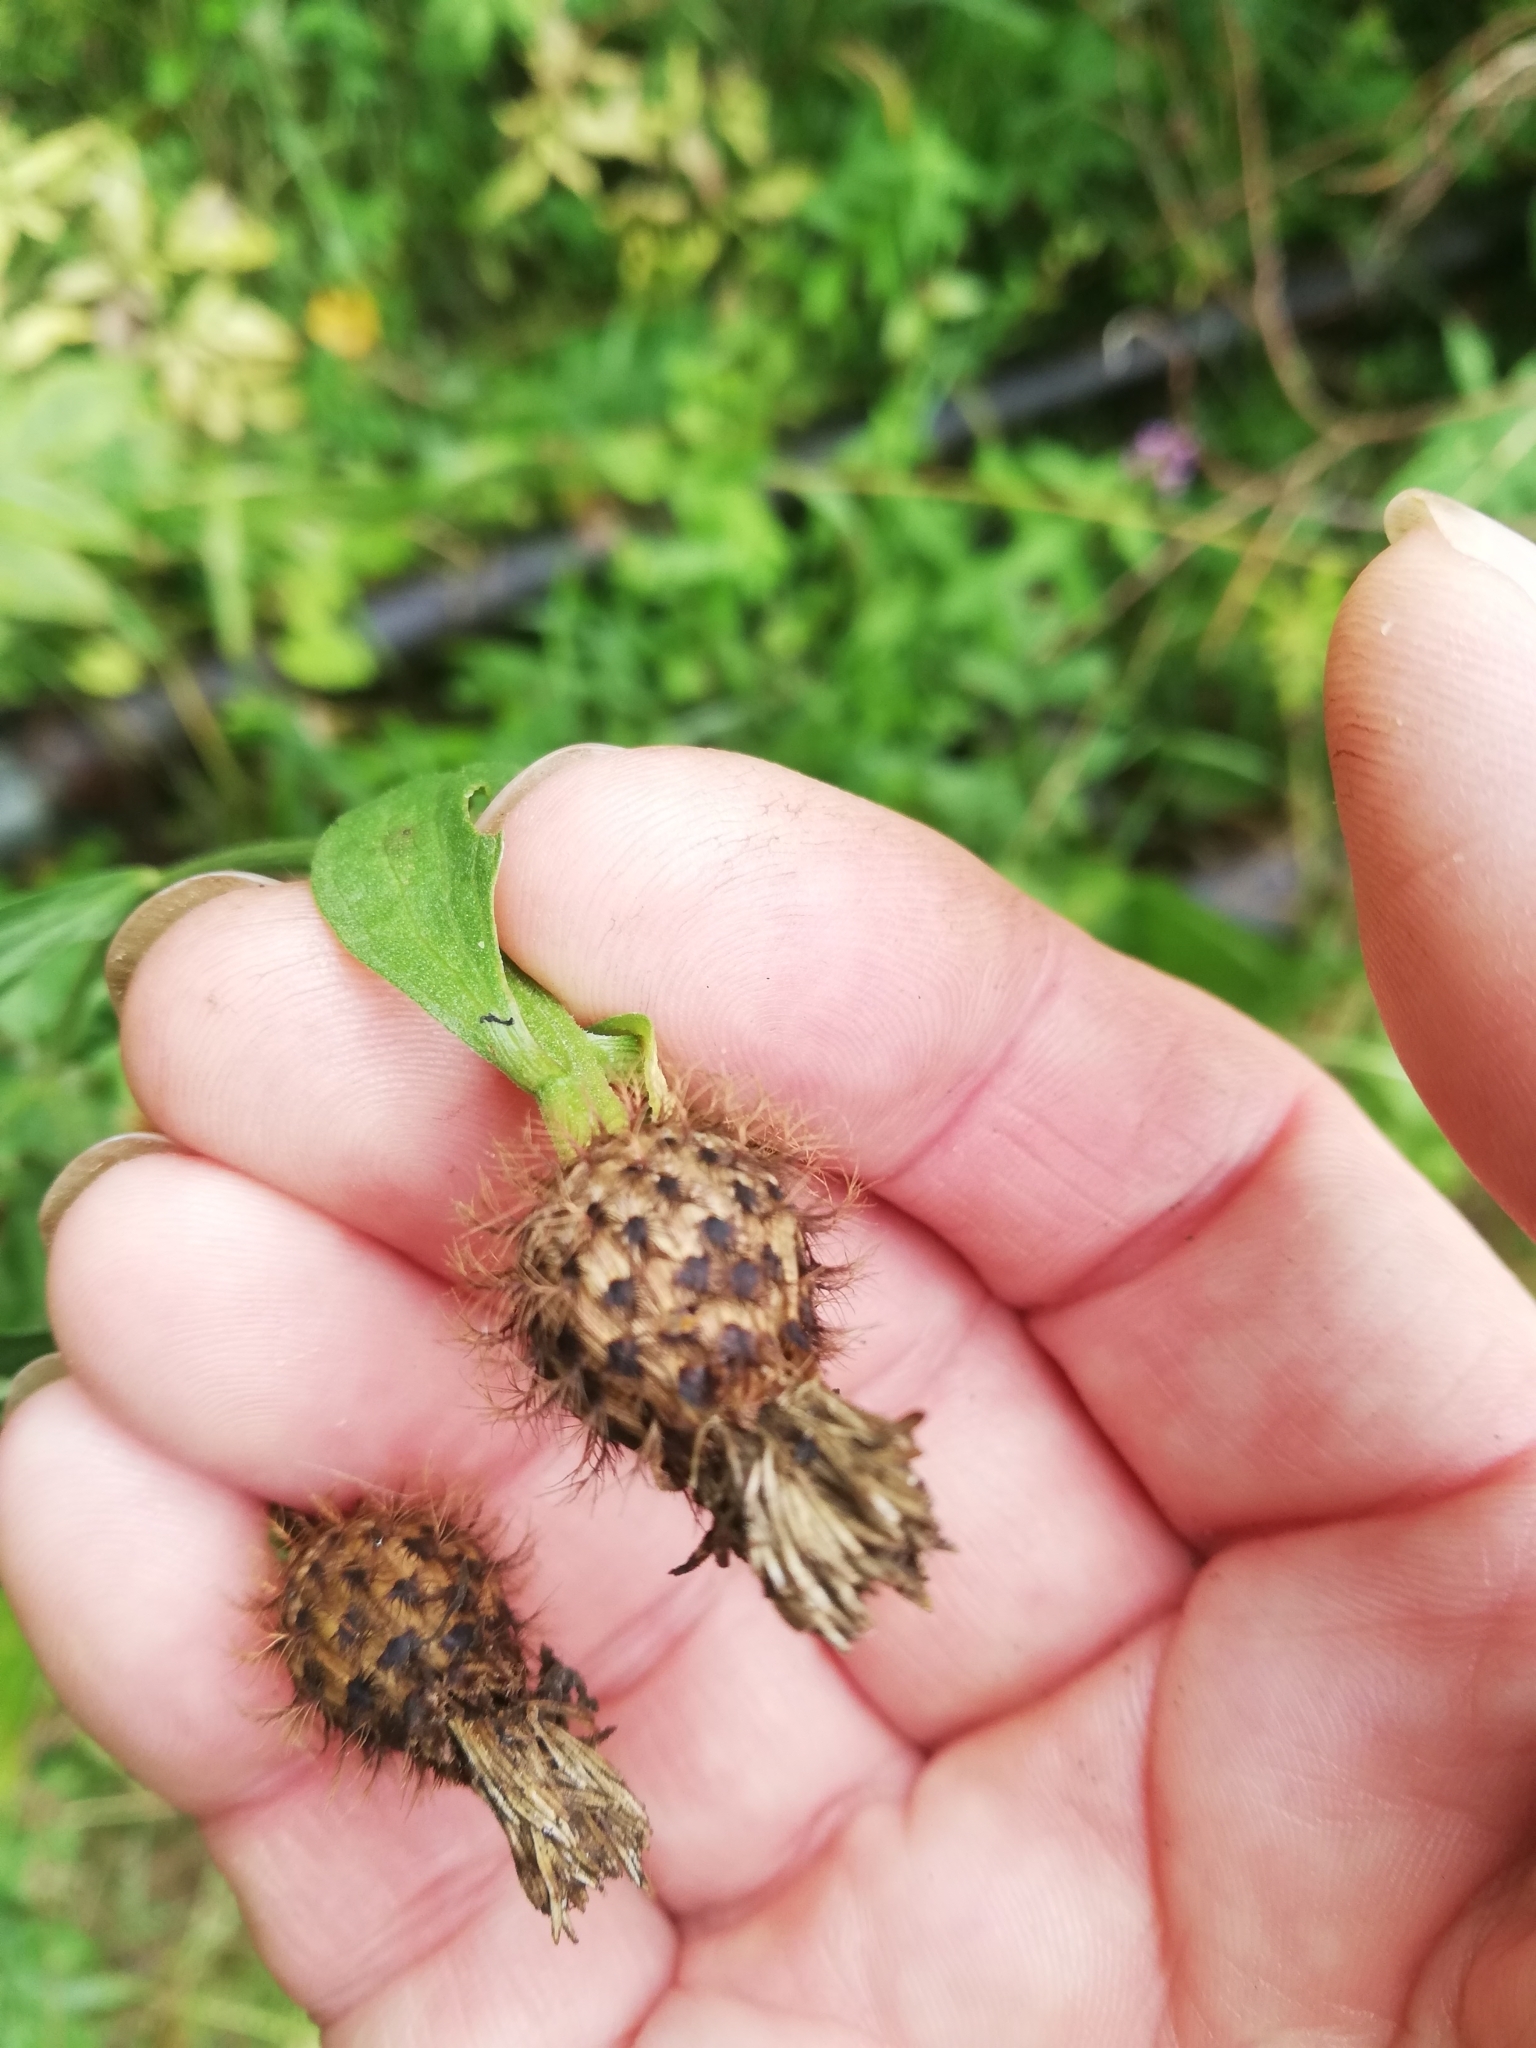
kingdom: Plantae
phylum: Tracheophyta
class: Magnoliopsida
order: Asterales
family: Asteraceae
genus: Centaurea
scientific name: Centaurea pseudophrygia
